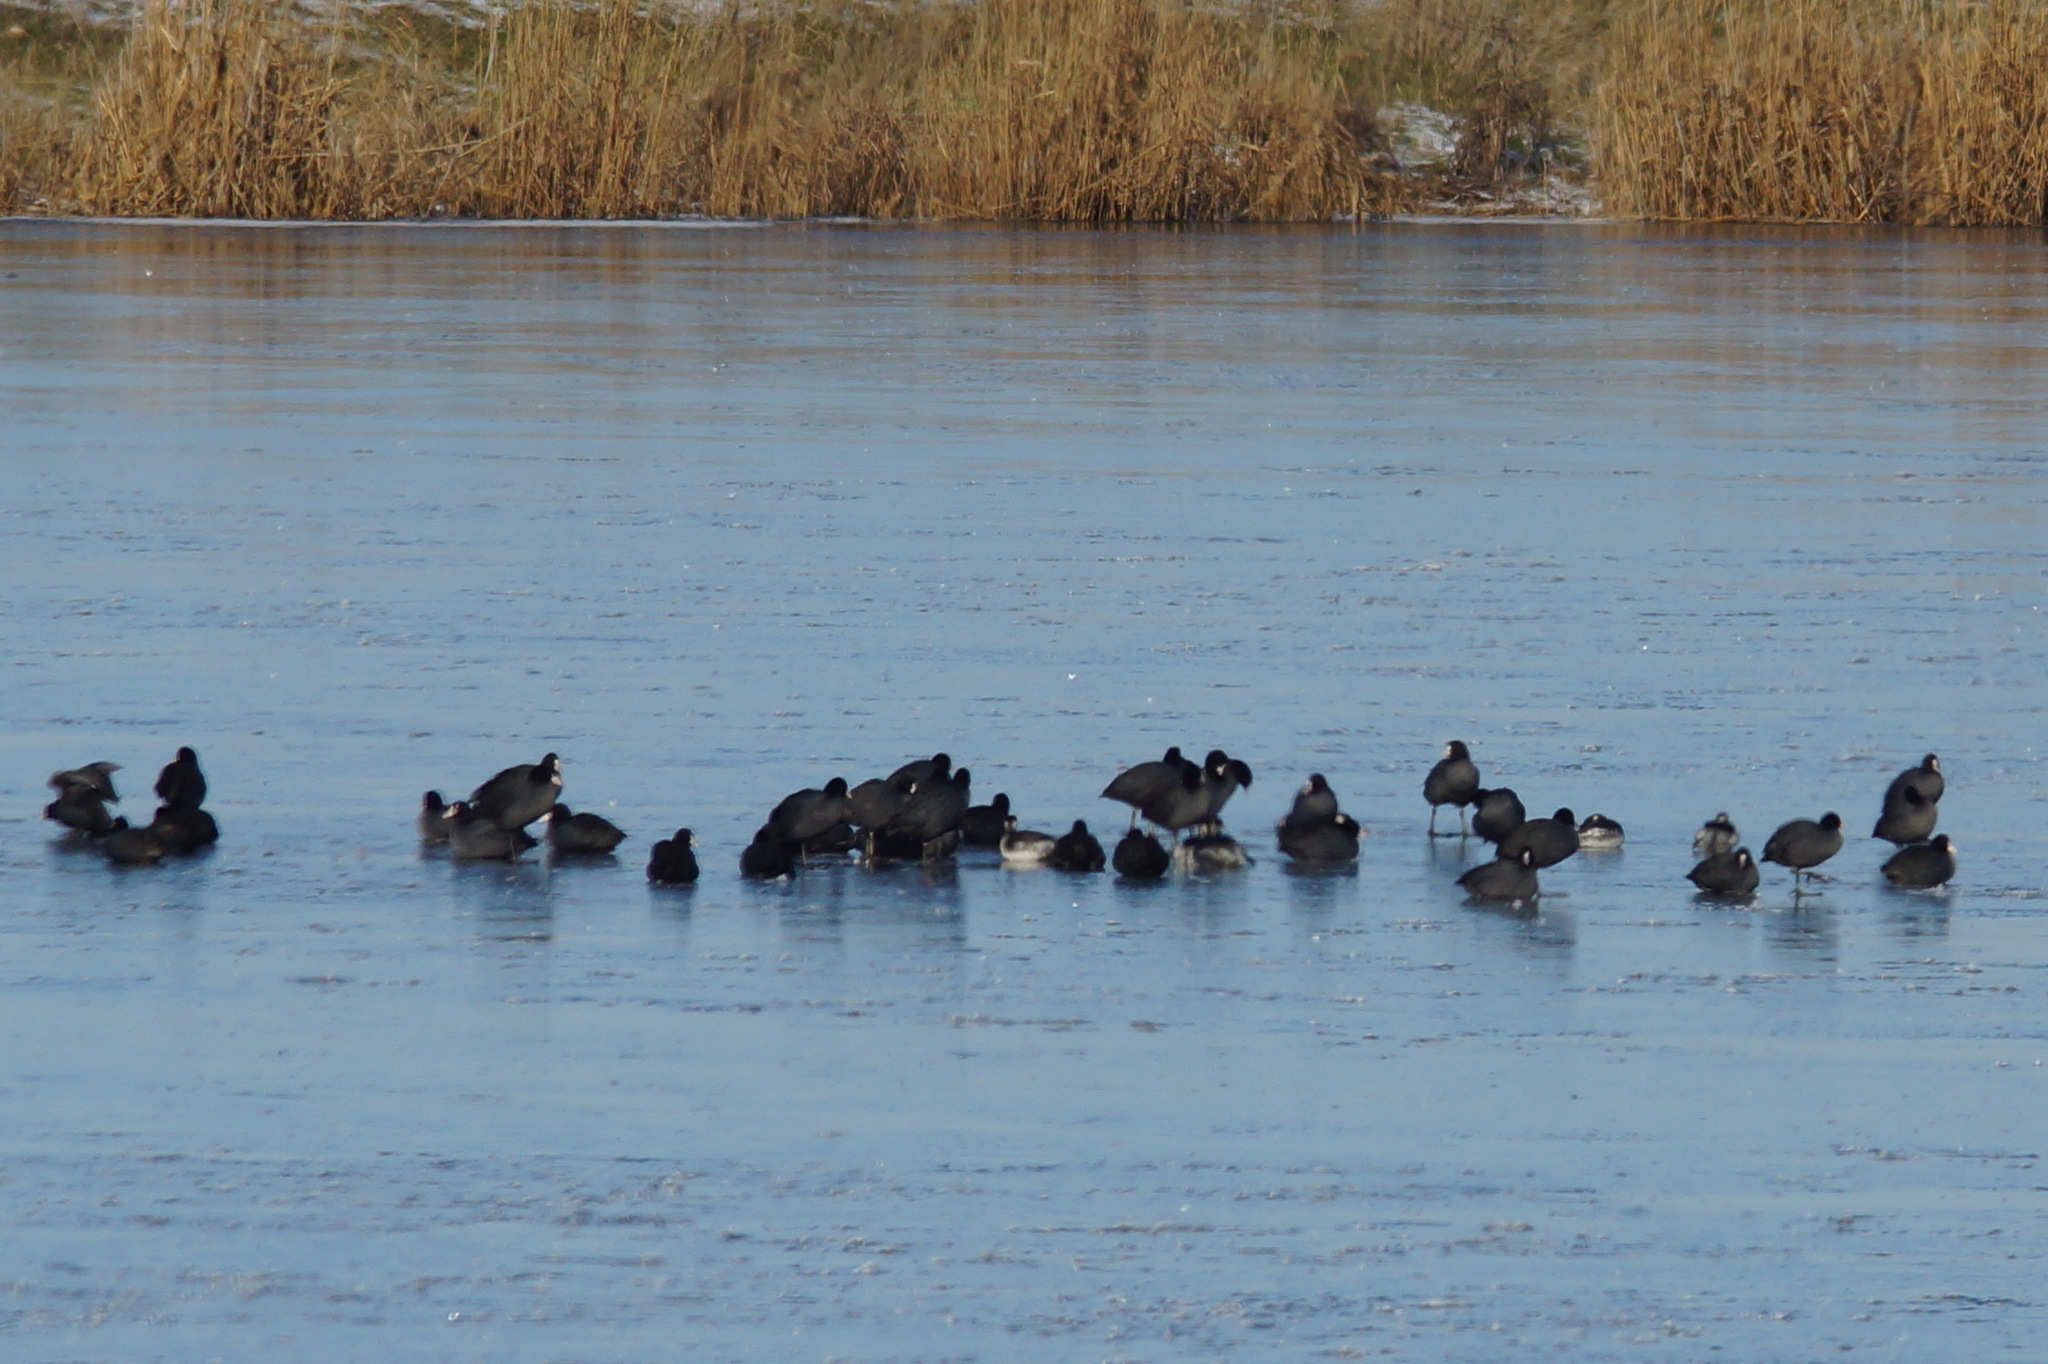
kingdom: Animalia
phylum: Chordata
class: Aves
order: Gruiformes
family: Rallidae
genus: Fulica
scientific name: Fulica atra
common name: Eurasian coot
